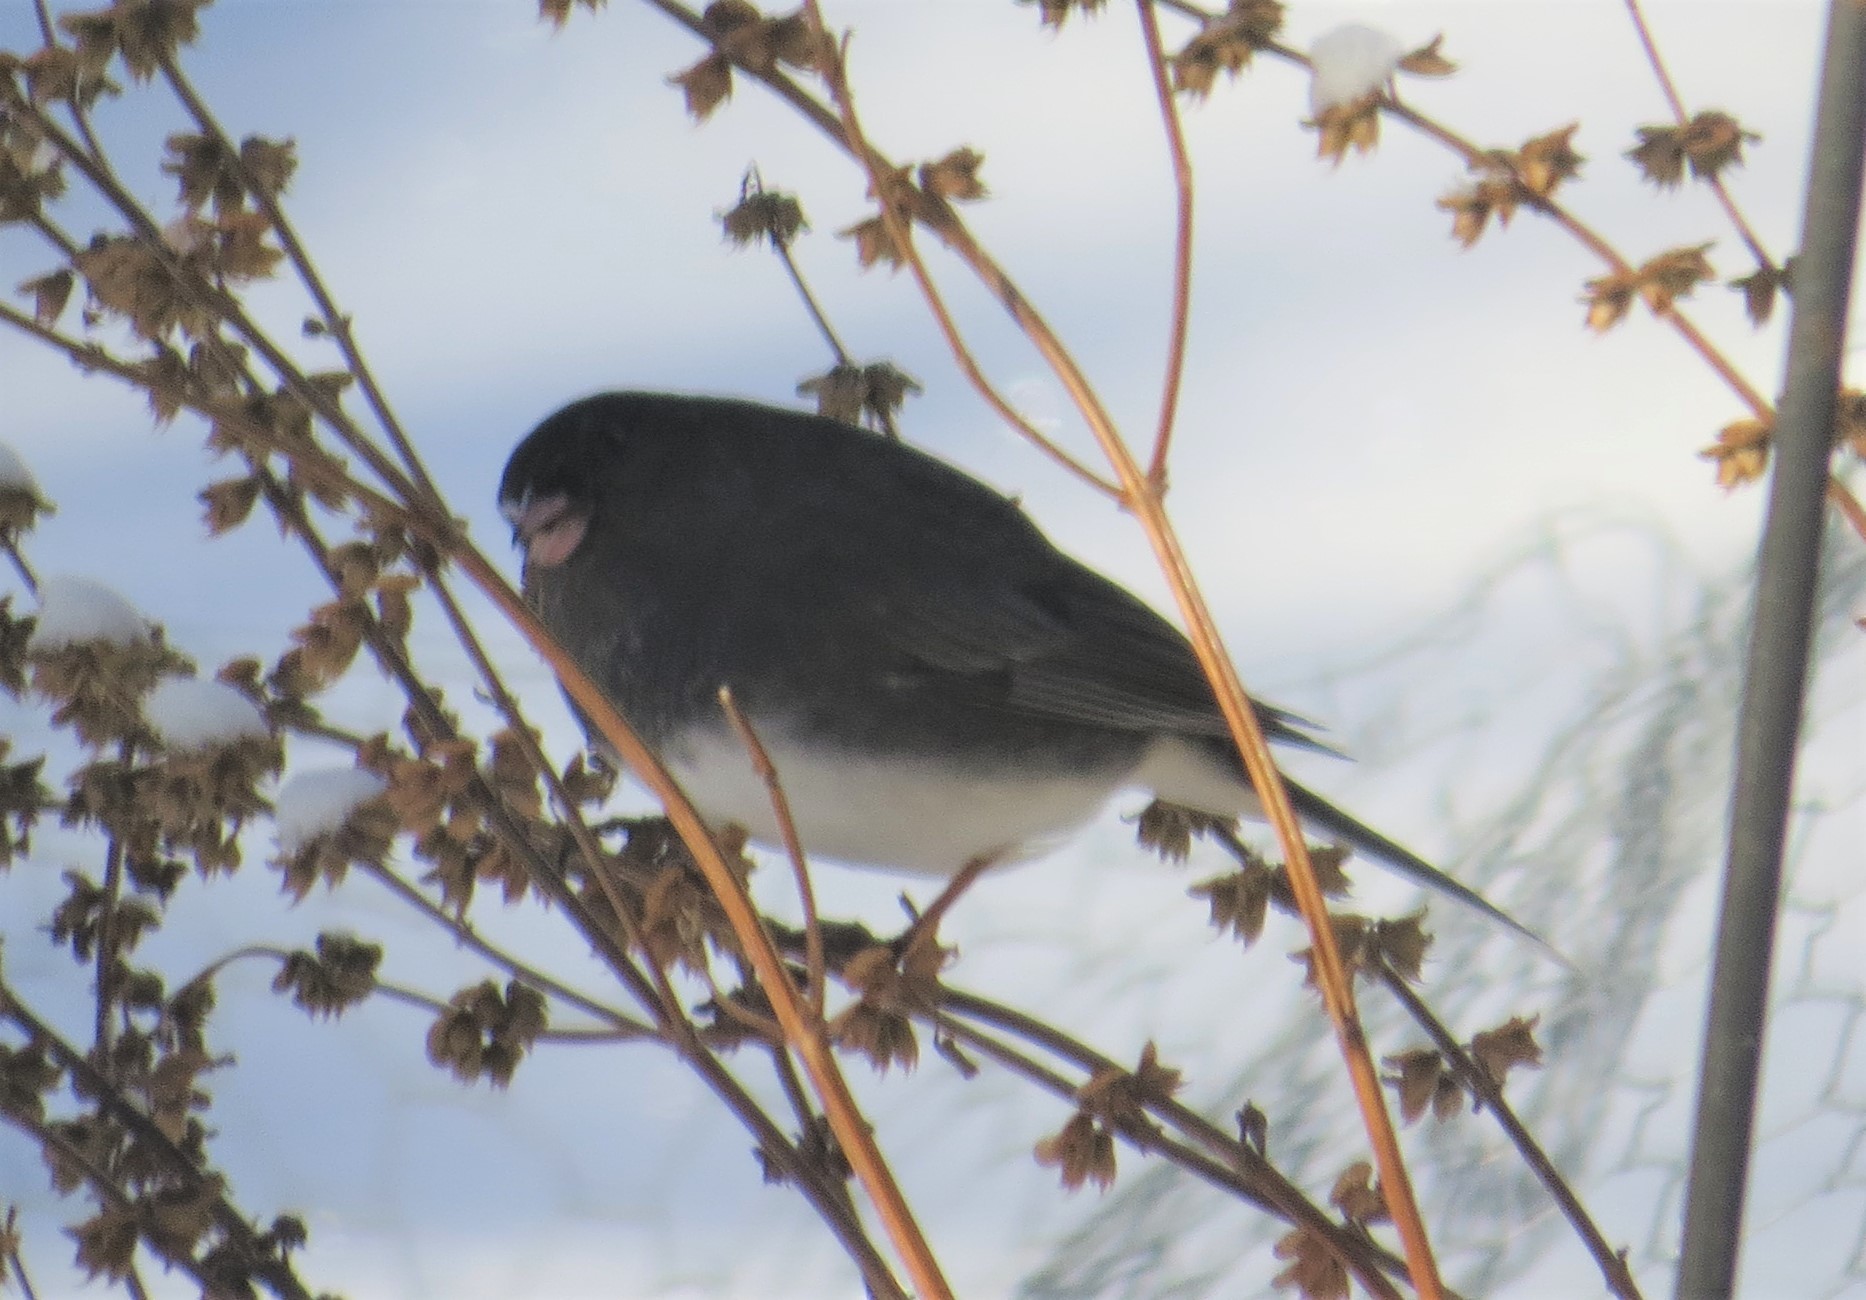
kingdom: Animalia
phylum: Chordata
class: Aves
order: Passeriformes
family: Passerellidae
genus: Junco
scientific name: Junco hyemalis
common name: Dark-eyed junco
